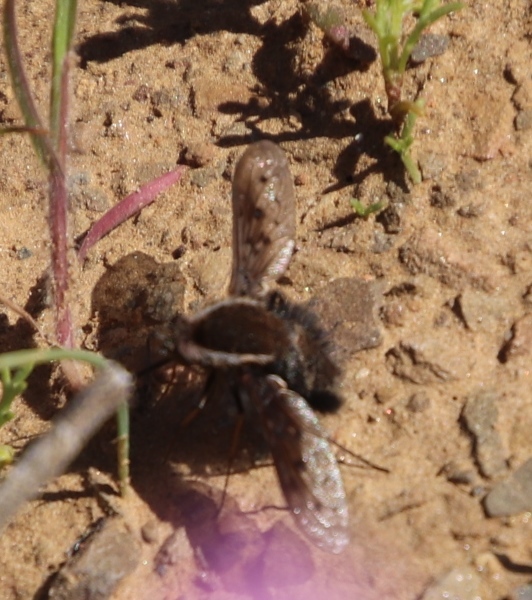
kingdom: Animalia
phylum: Arthropoda
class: Insecta
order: Diptera
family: Bombyliidae
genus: Triplasius
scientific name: Triplasius lateralis
